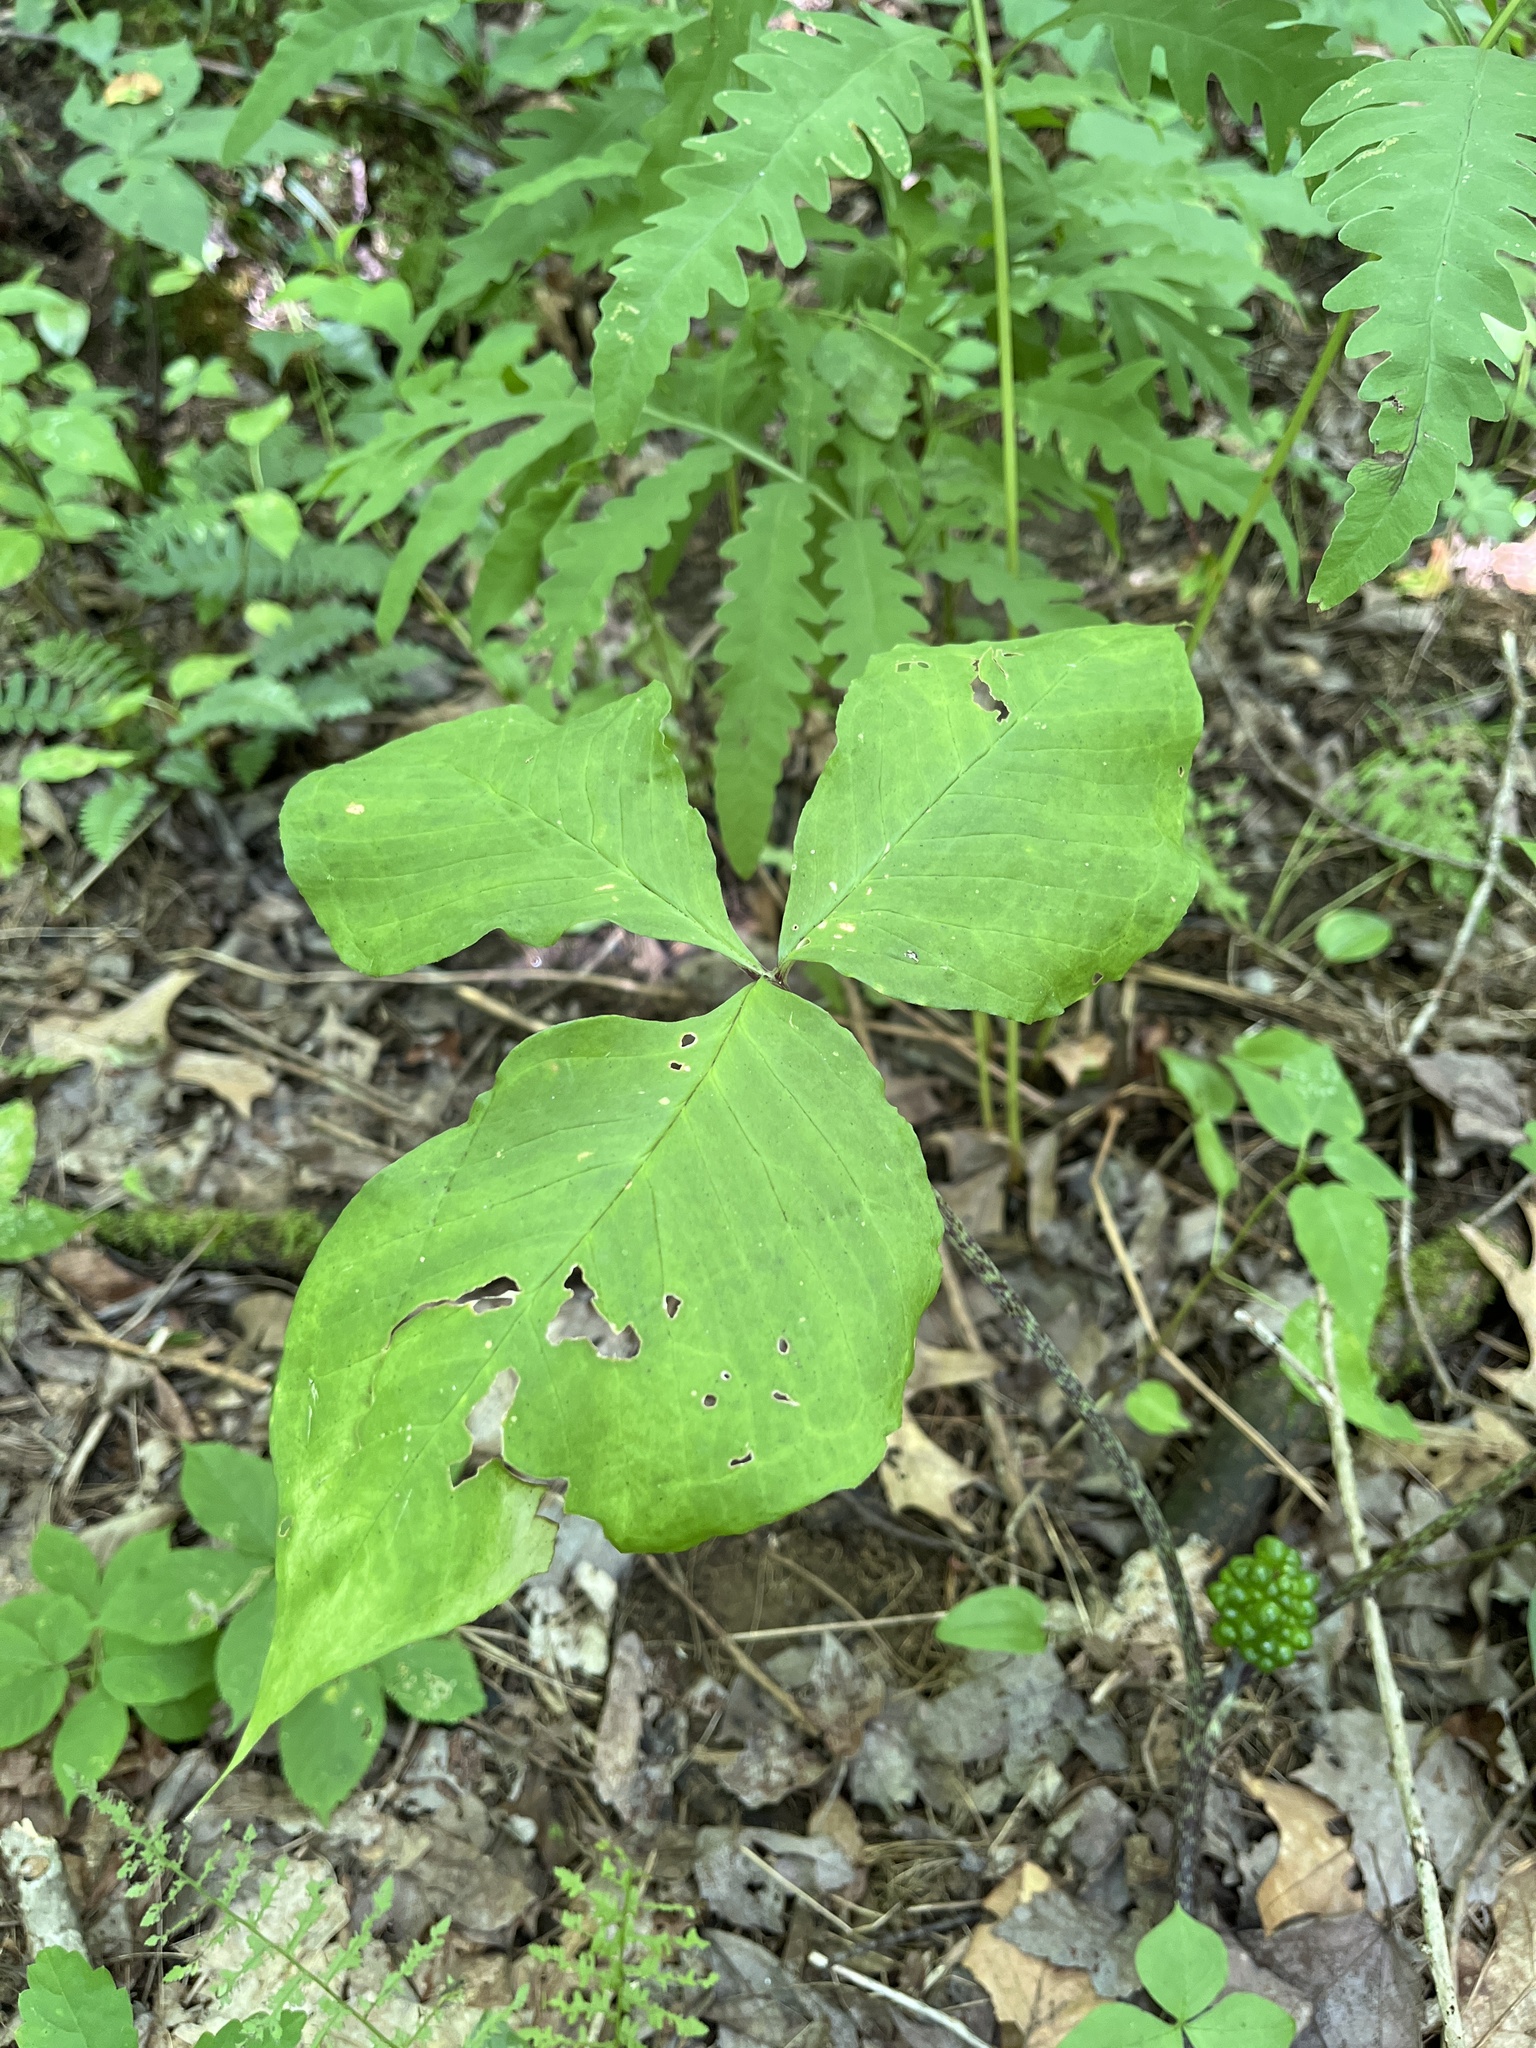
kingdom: Plantae
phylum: Tracheophyta
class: Liliopsida
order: Alismatales
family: Araceae
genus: Arisaema
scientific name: Arisaema triphyllum
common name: Jack-in-the-pulpit
